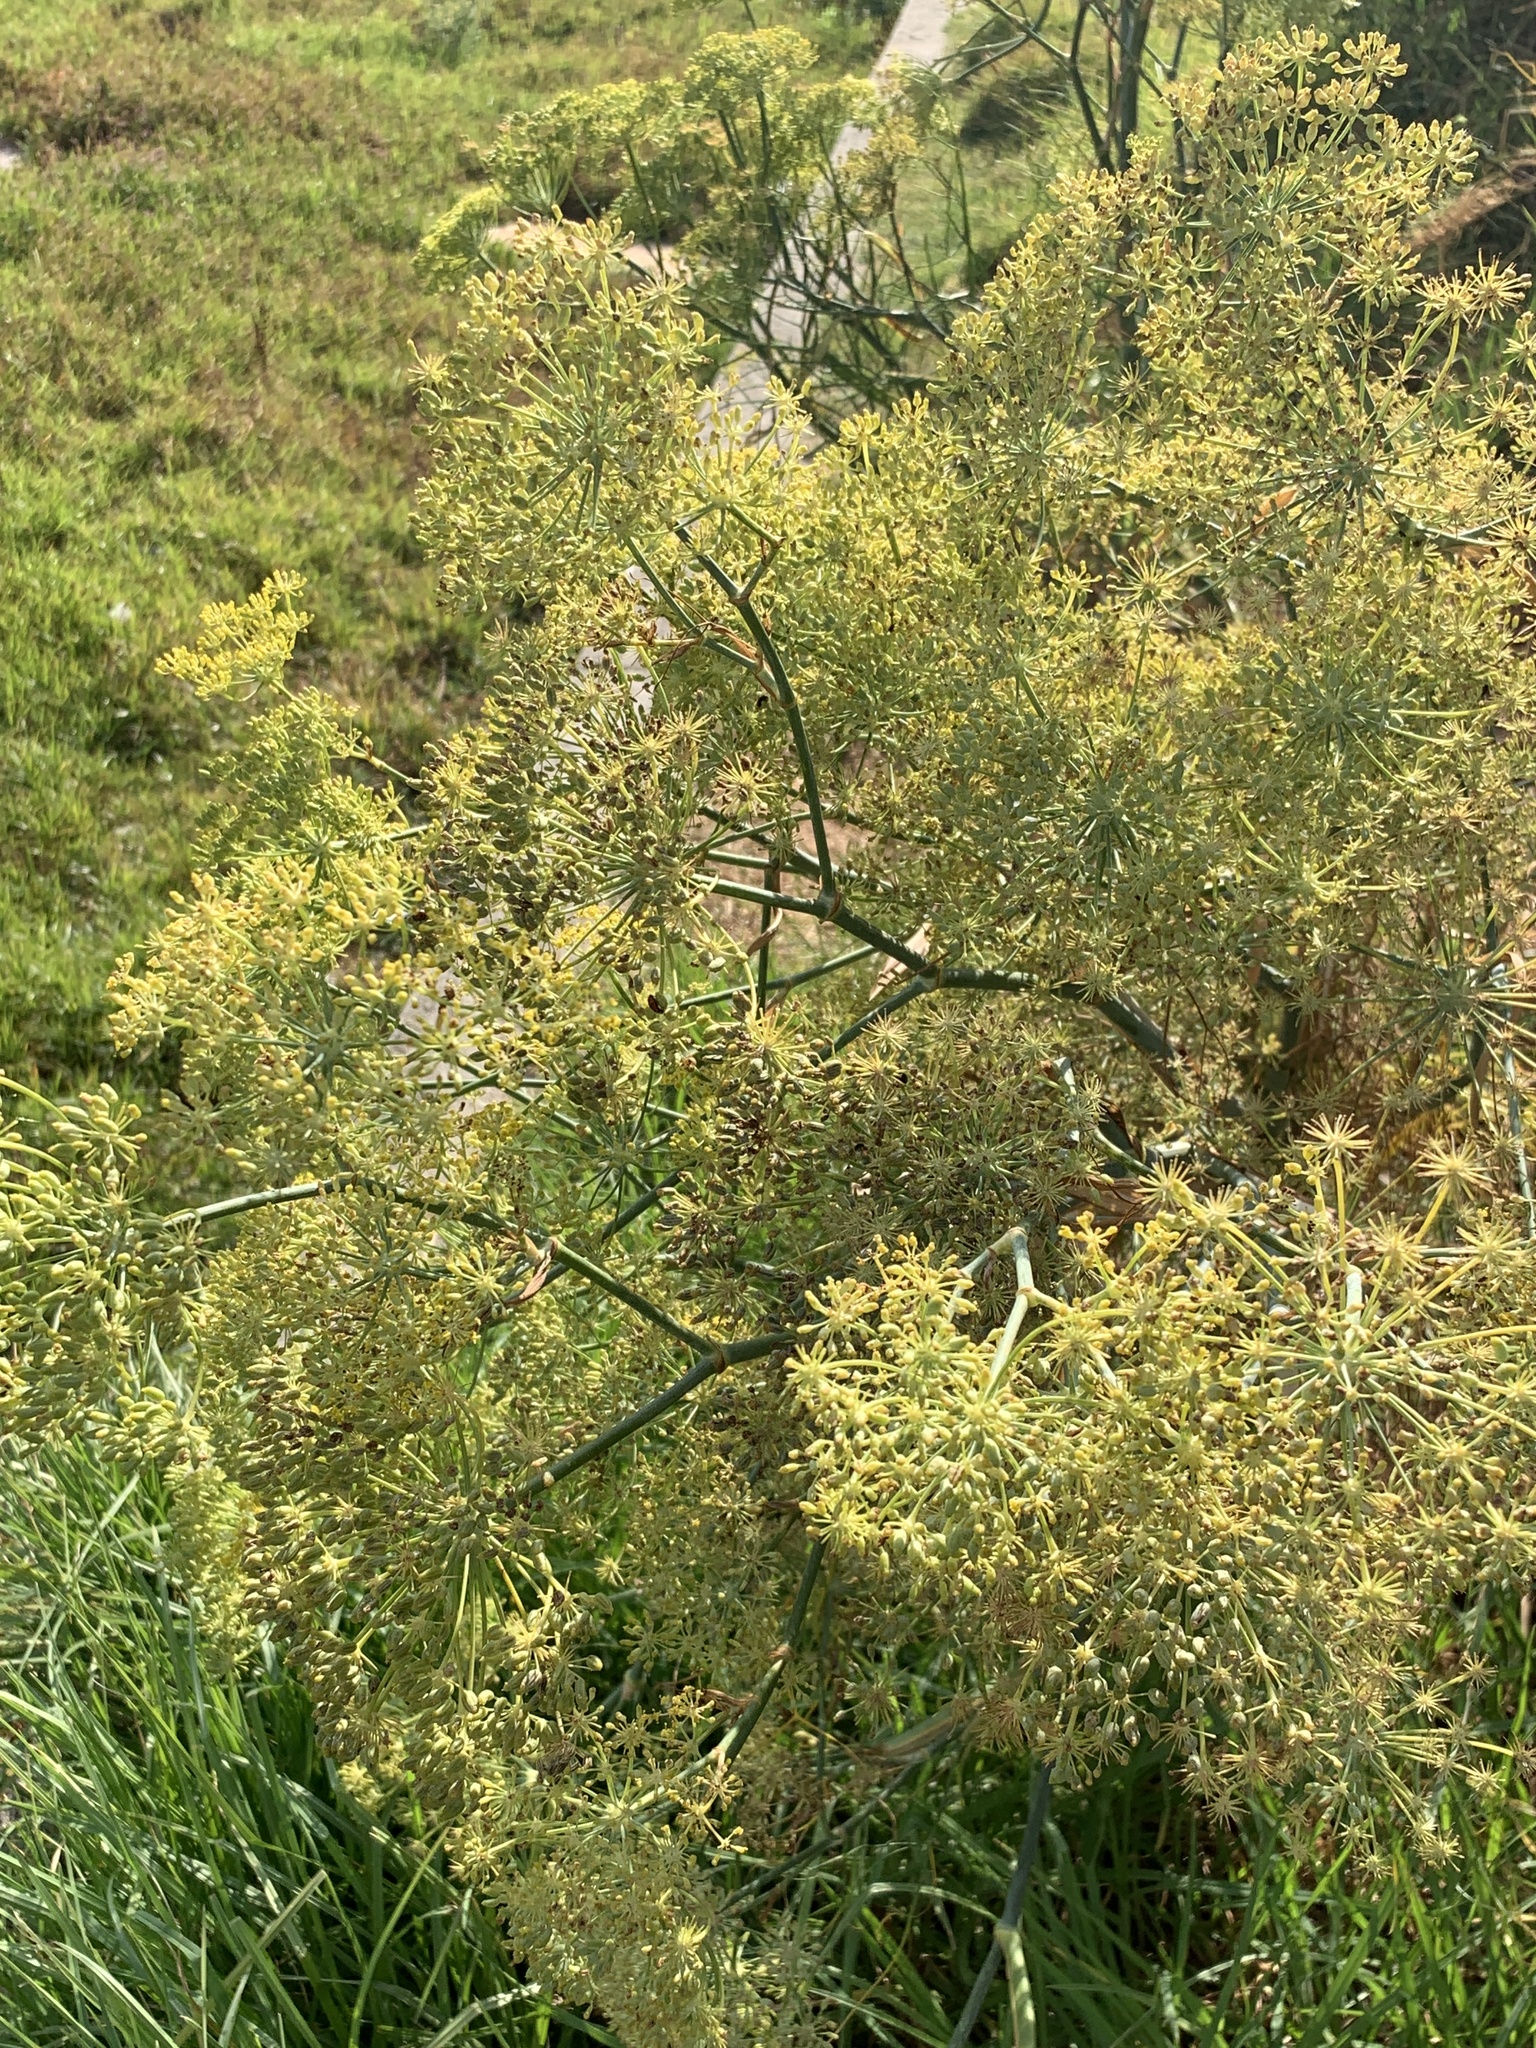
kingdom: Plantae
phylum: Tracheophyta
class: Magnoliopsida
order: Apiales
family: Apiaceae
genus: Foeniculum
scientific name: Foeniculum vulgare
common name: Fennel
